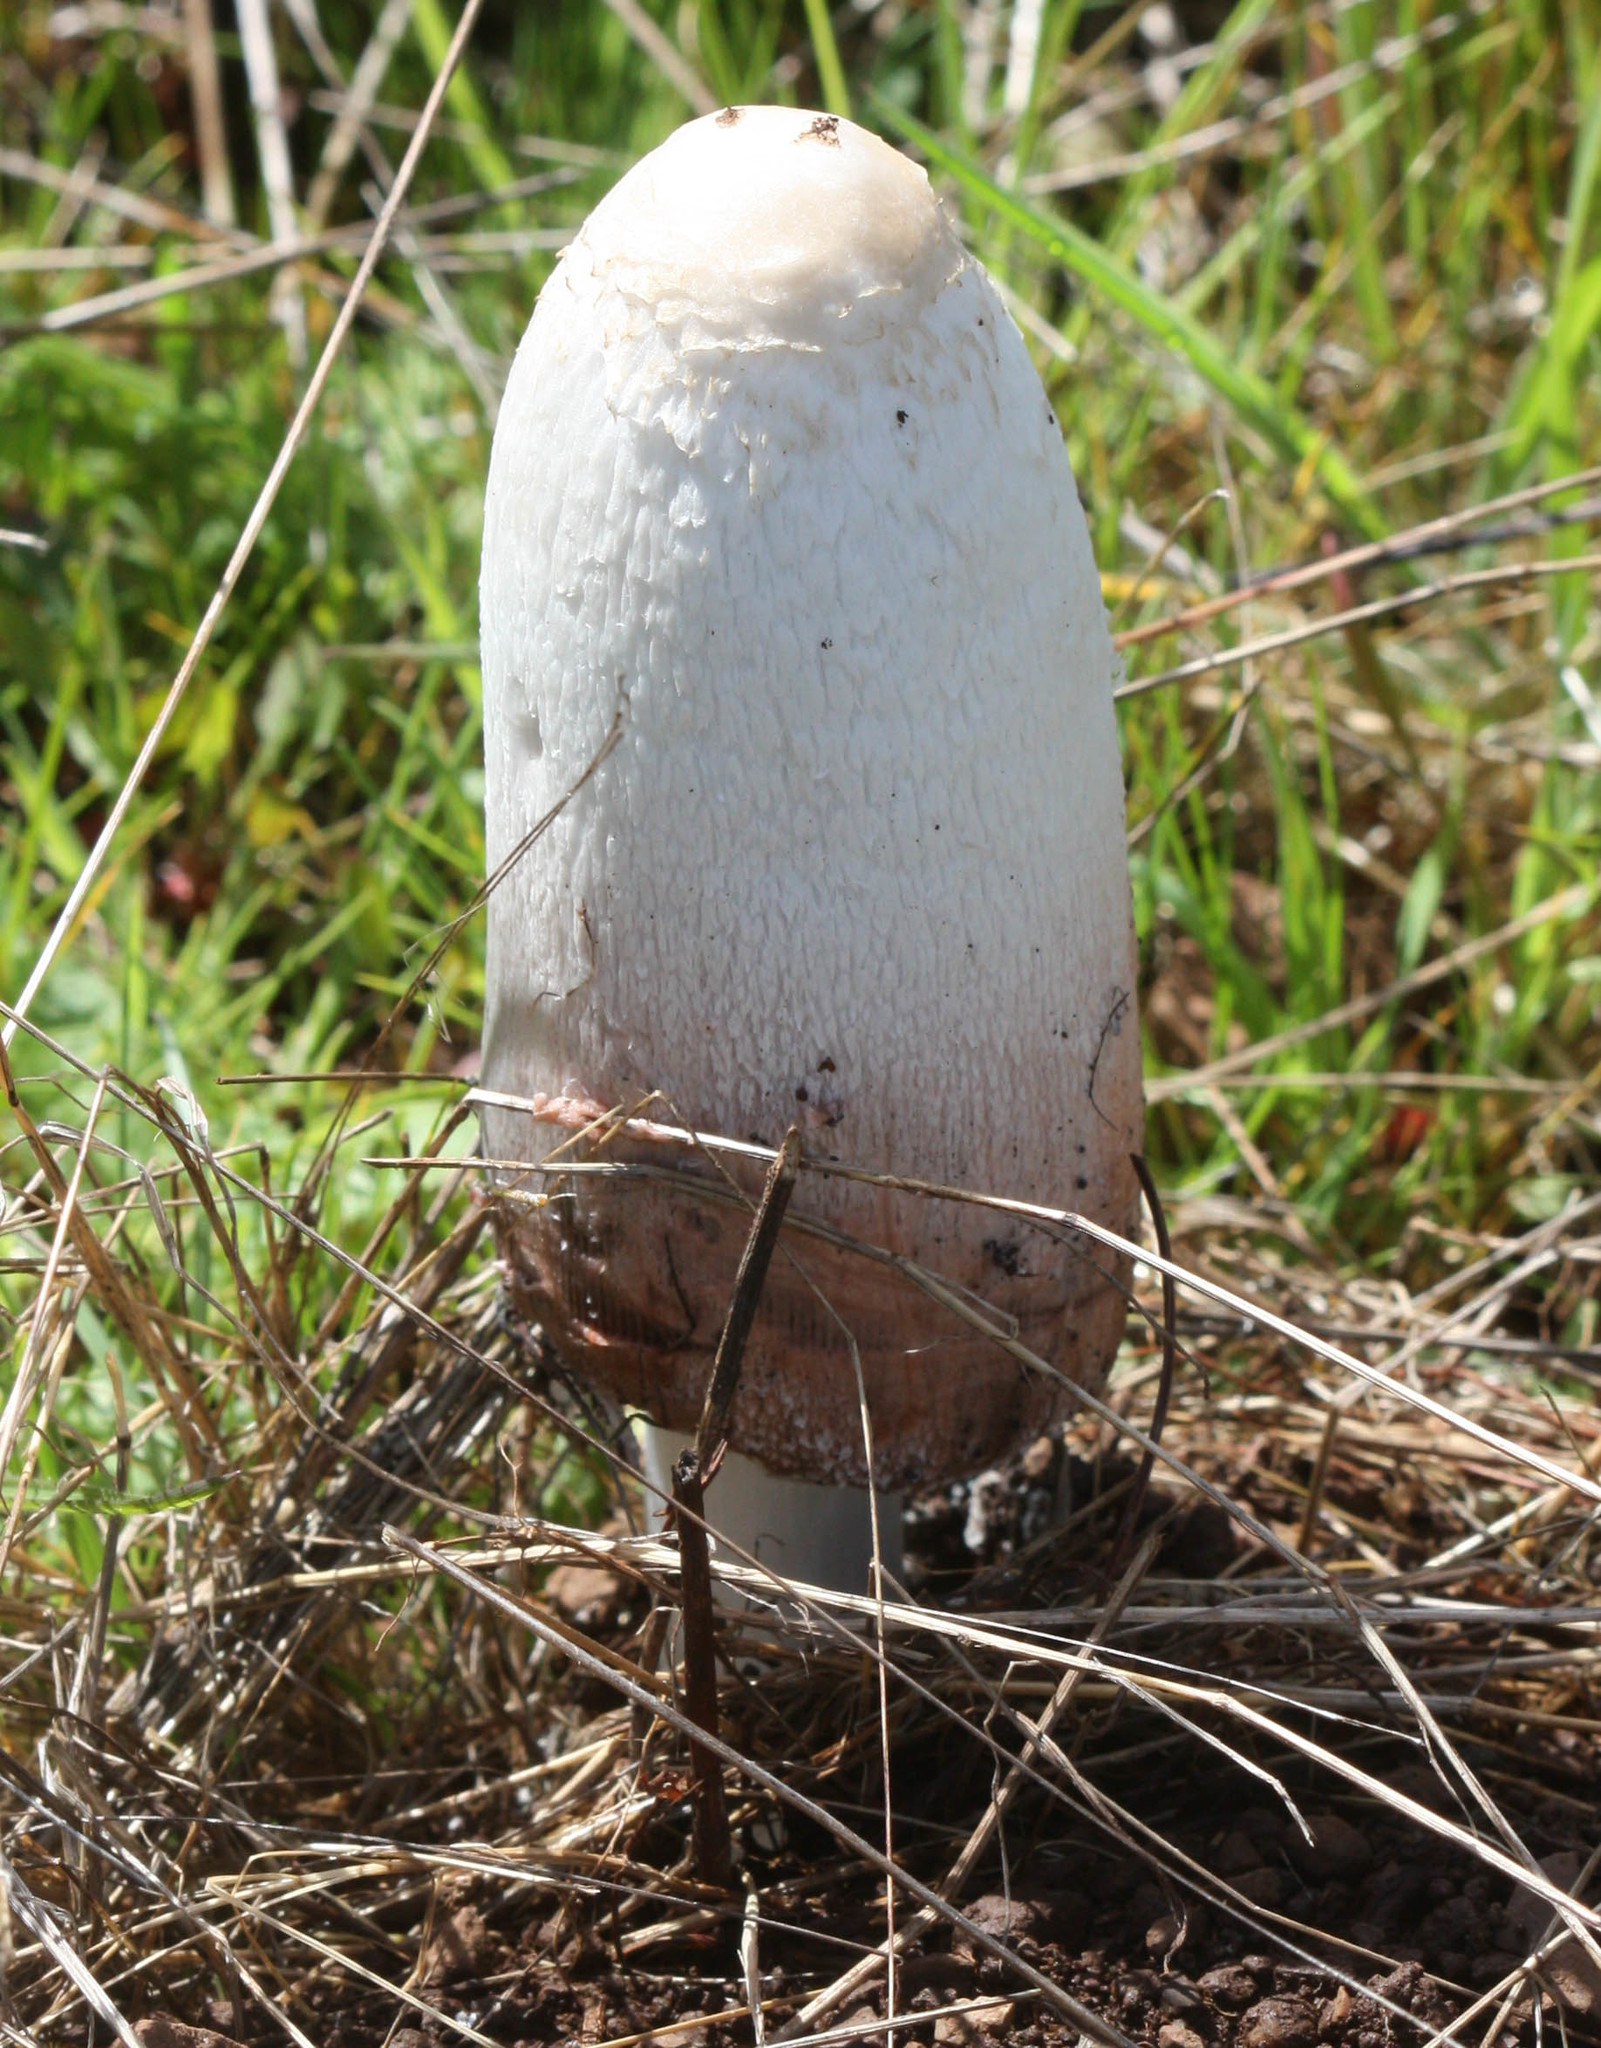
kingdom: Fungi
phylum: Basidiomycota
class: Agaricomycetes
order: Agaricales
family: Agaricaceae
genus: Coprinus
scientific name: Coprinus comatus
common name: Lawyer's wig
